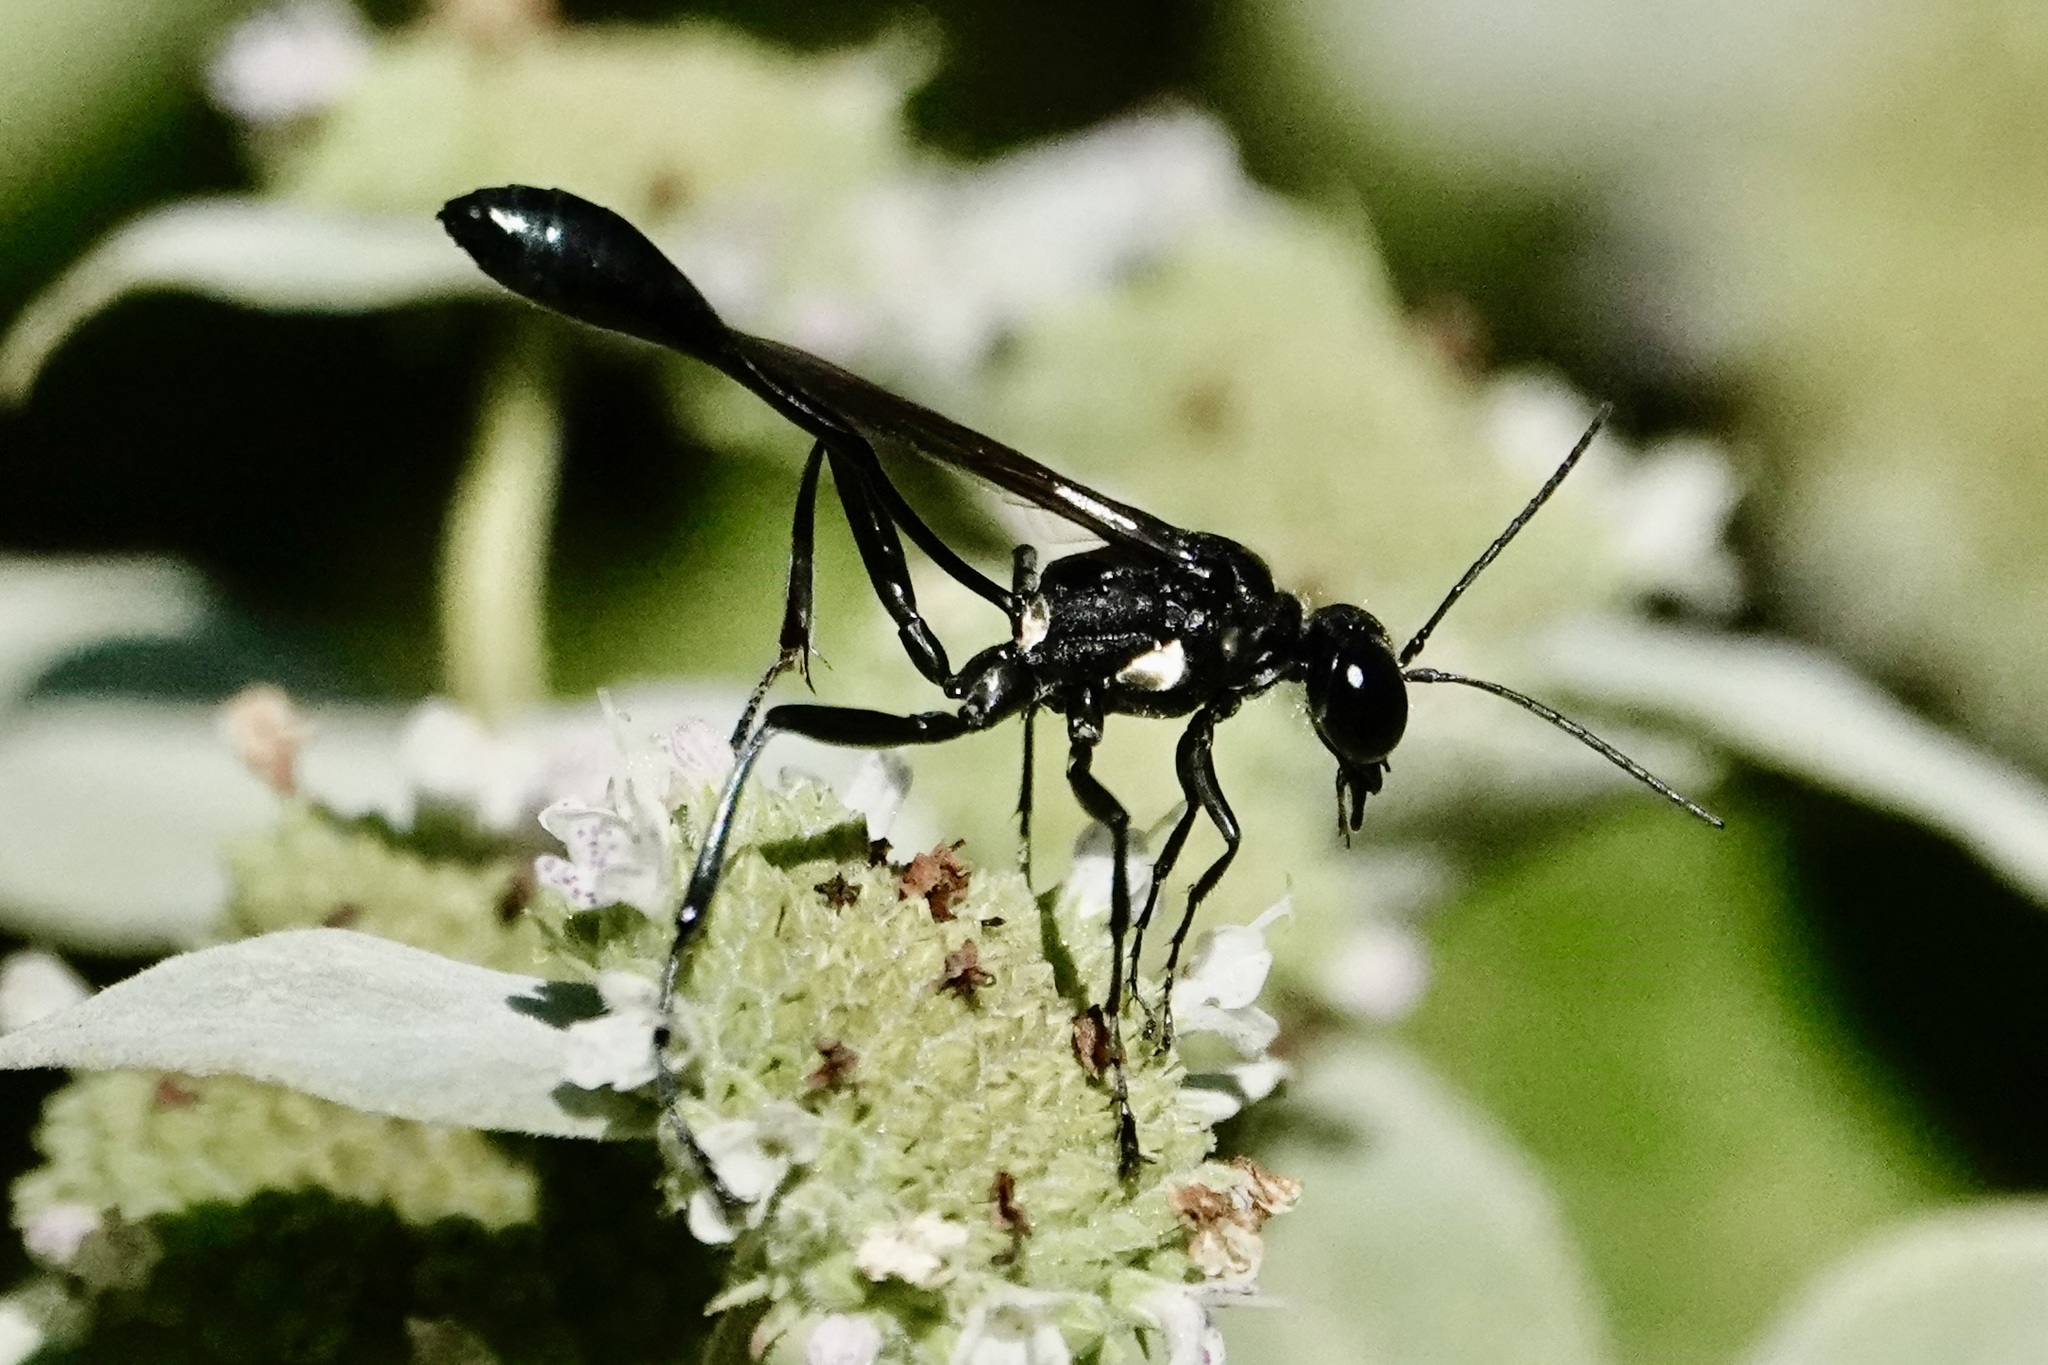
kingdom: Animalia
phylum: Arthropoda
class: Insecta
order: Hymenoptera
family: Sphecidae
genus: Eremnophila
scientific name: Eremnophila aureonotata
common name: Gold-marked thread-waisted wasp
